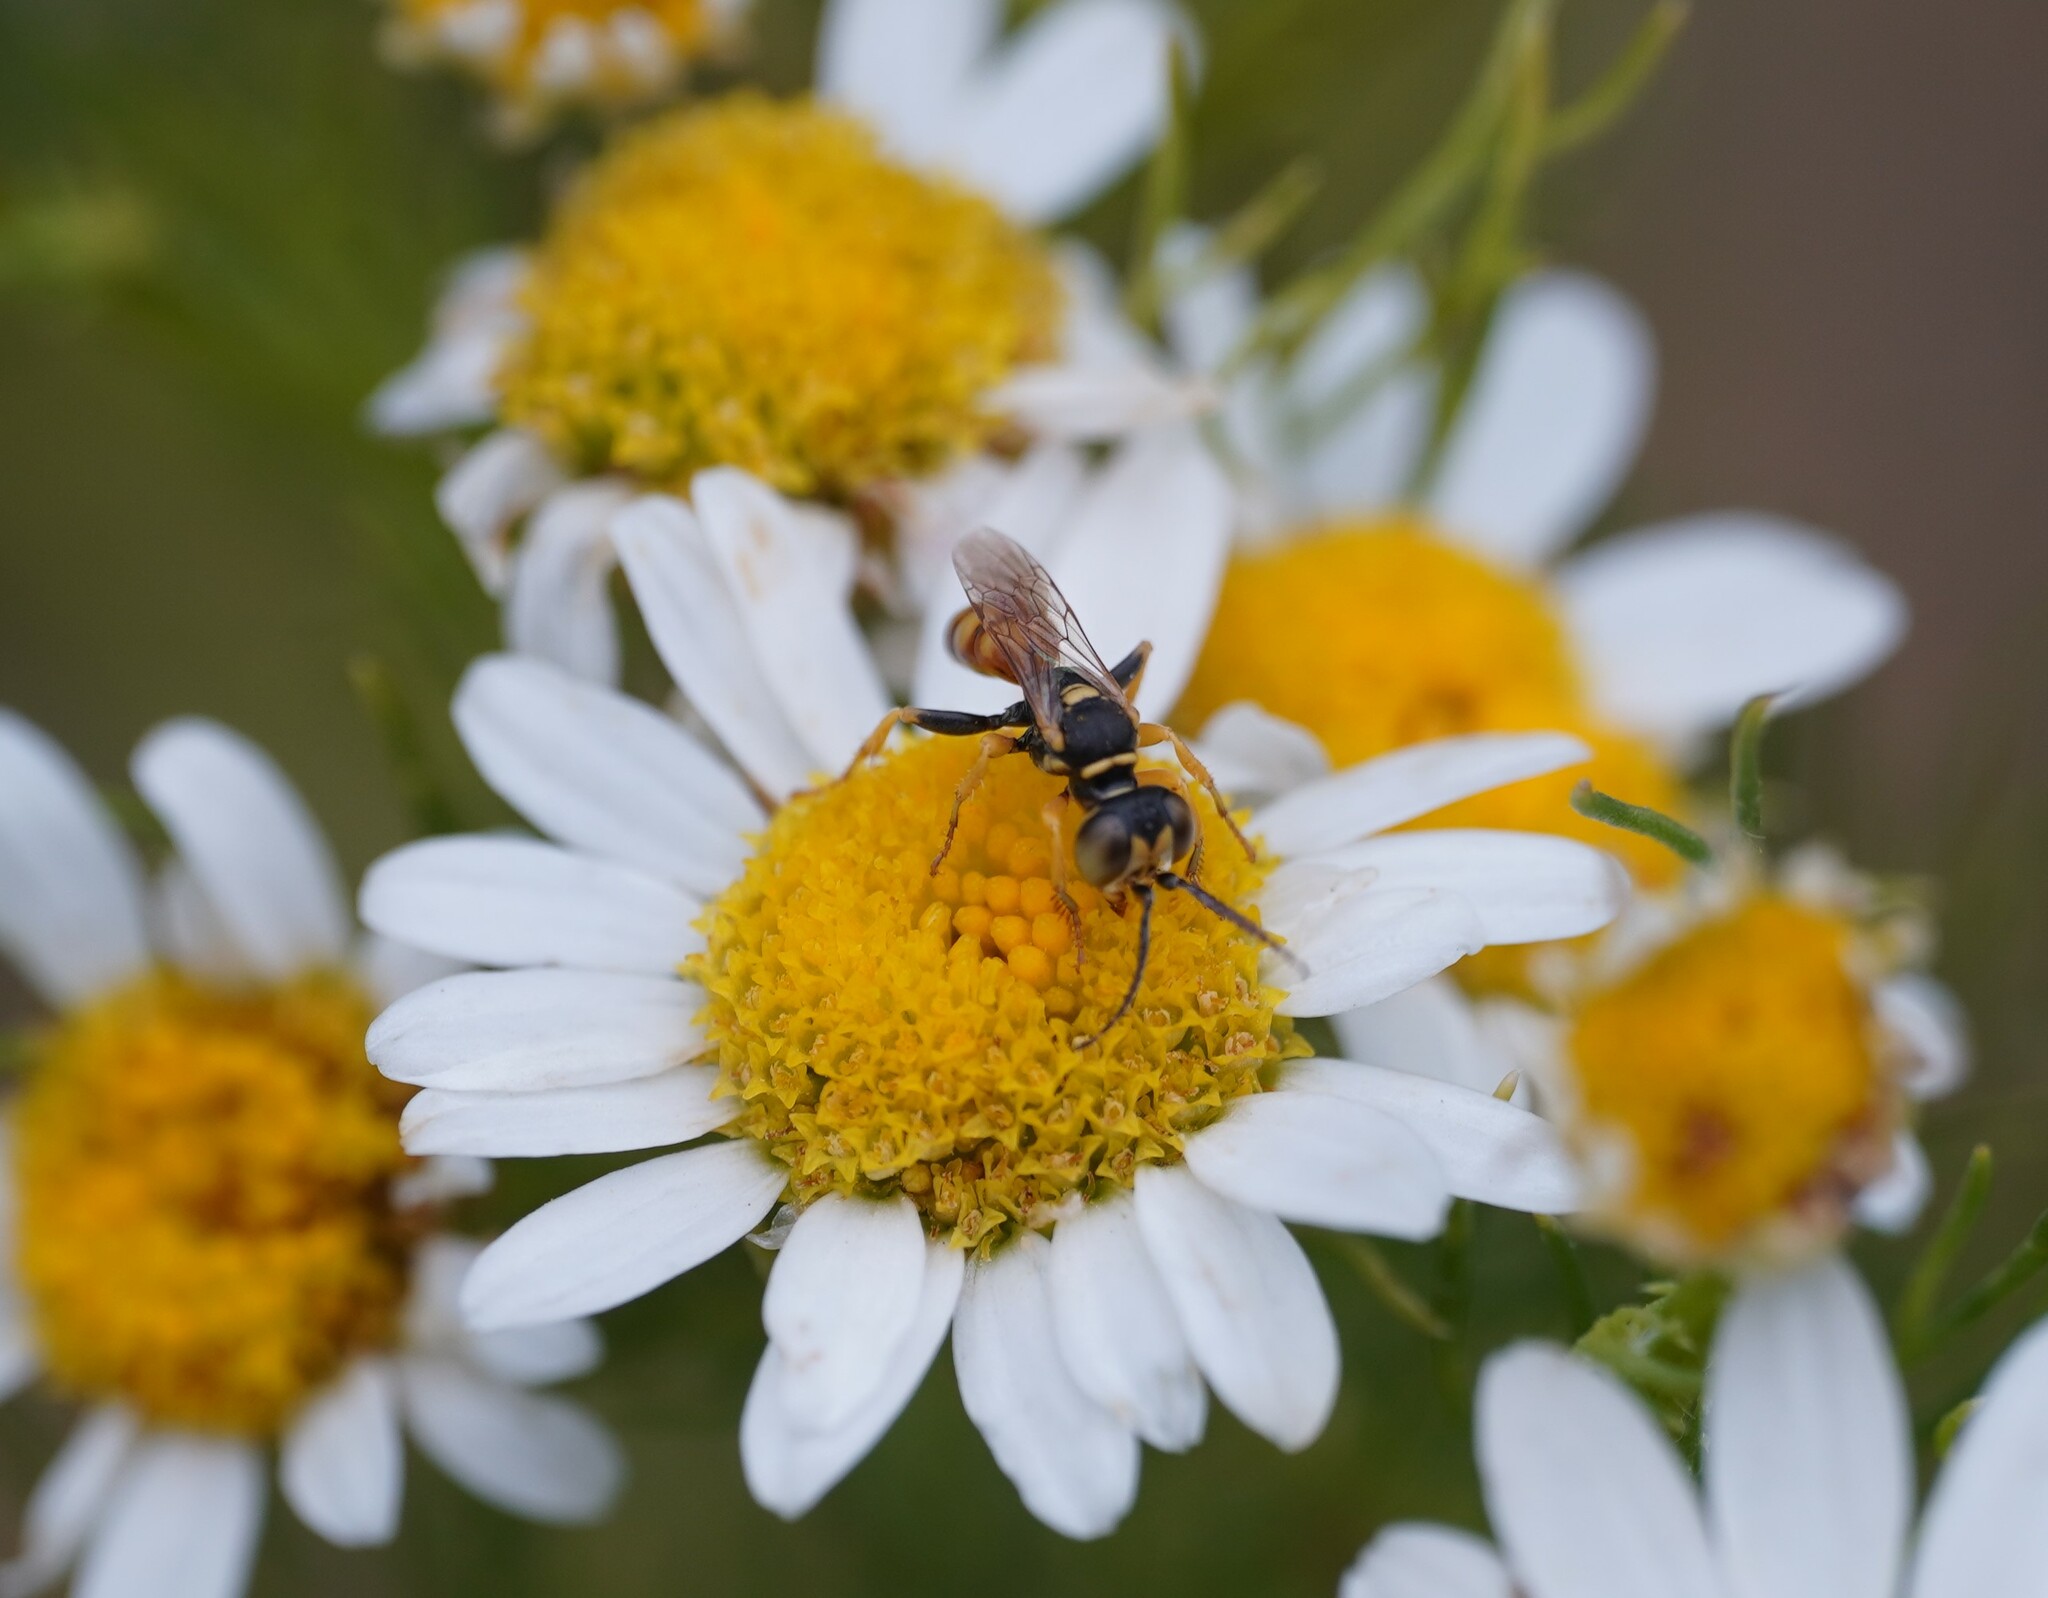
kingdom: Animalia
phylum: Arthropoda
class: Insecta
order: Hymenoptera
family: Crabronidae
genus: Dinetus
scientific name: Dinetus pictus
